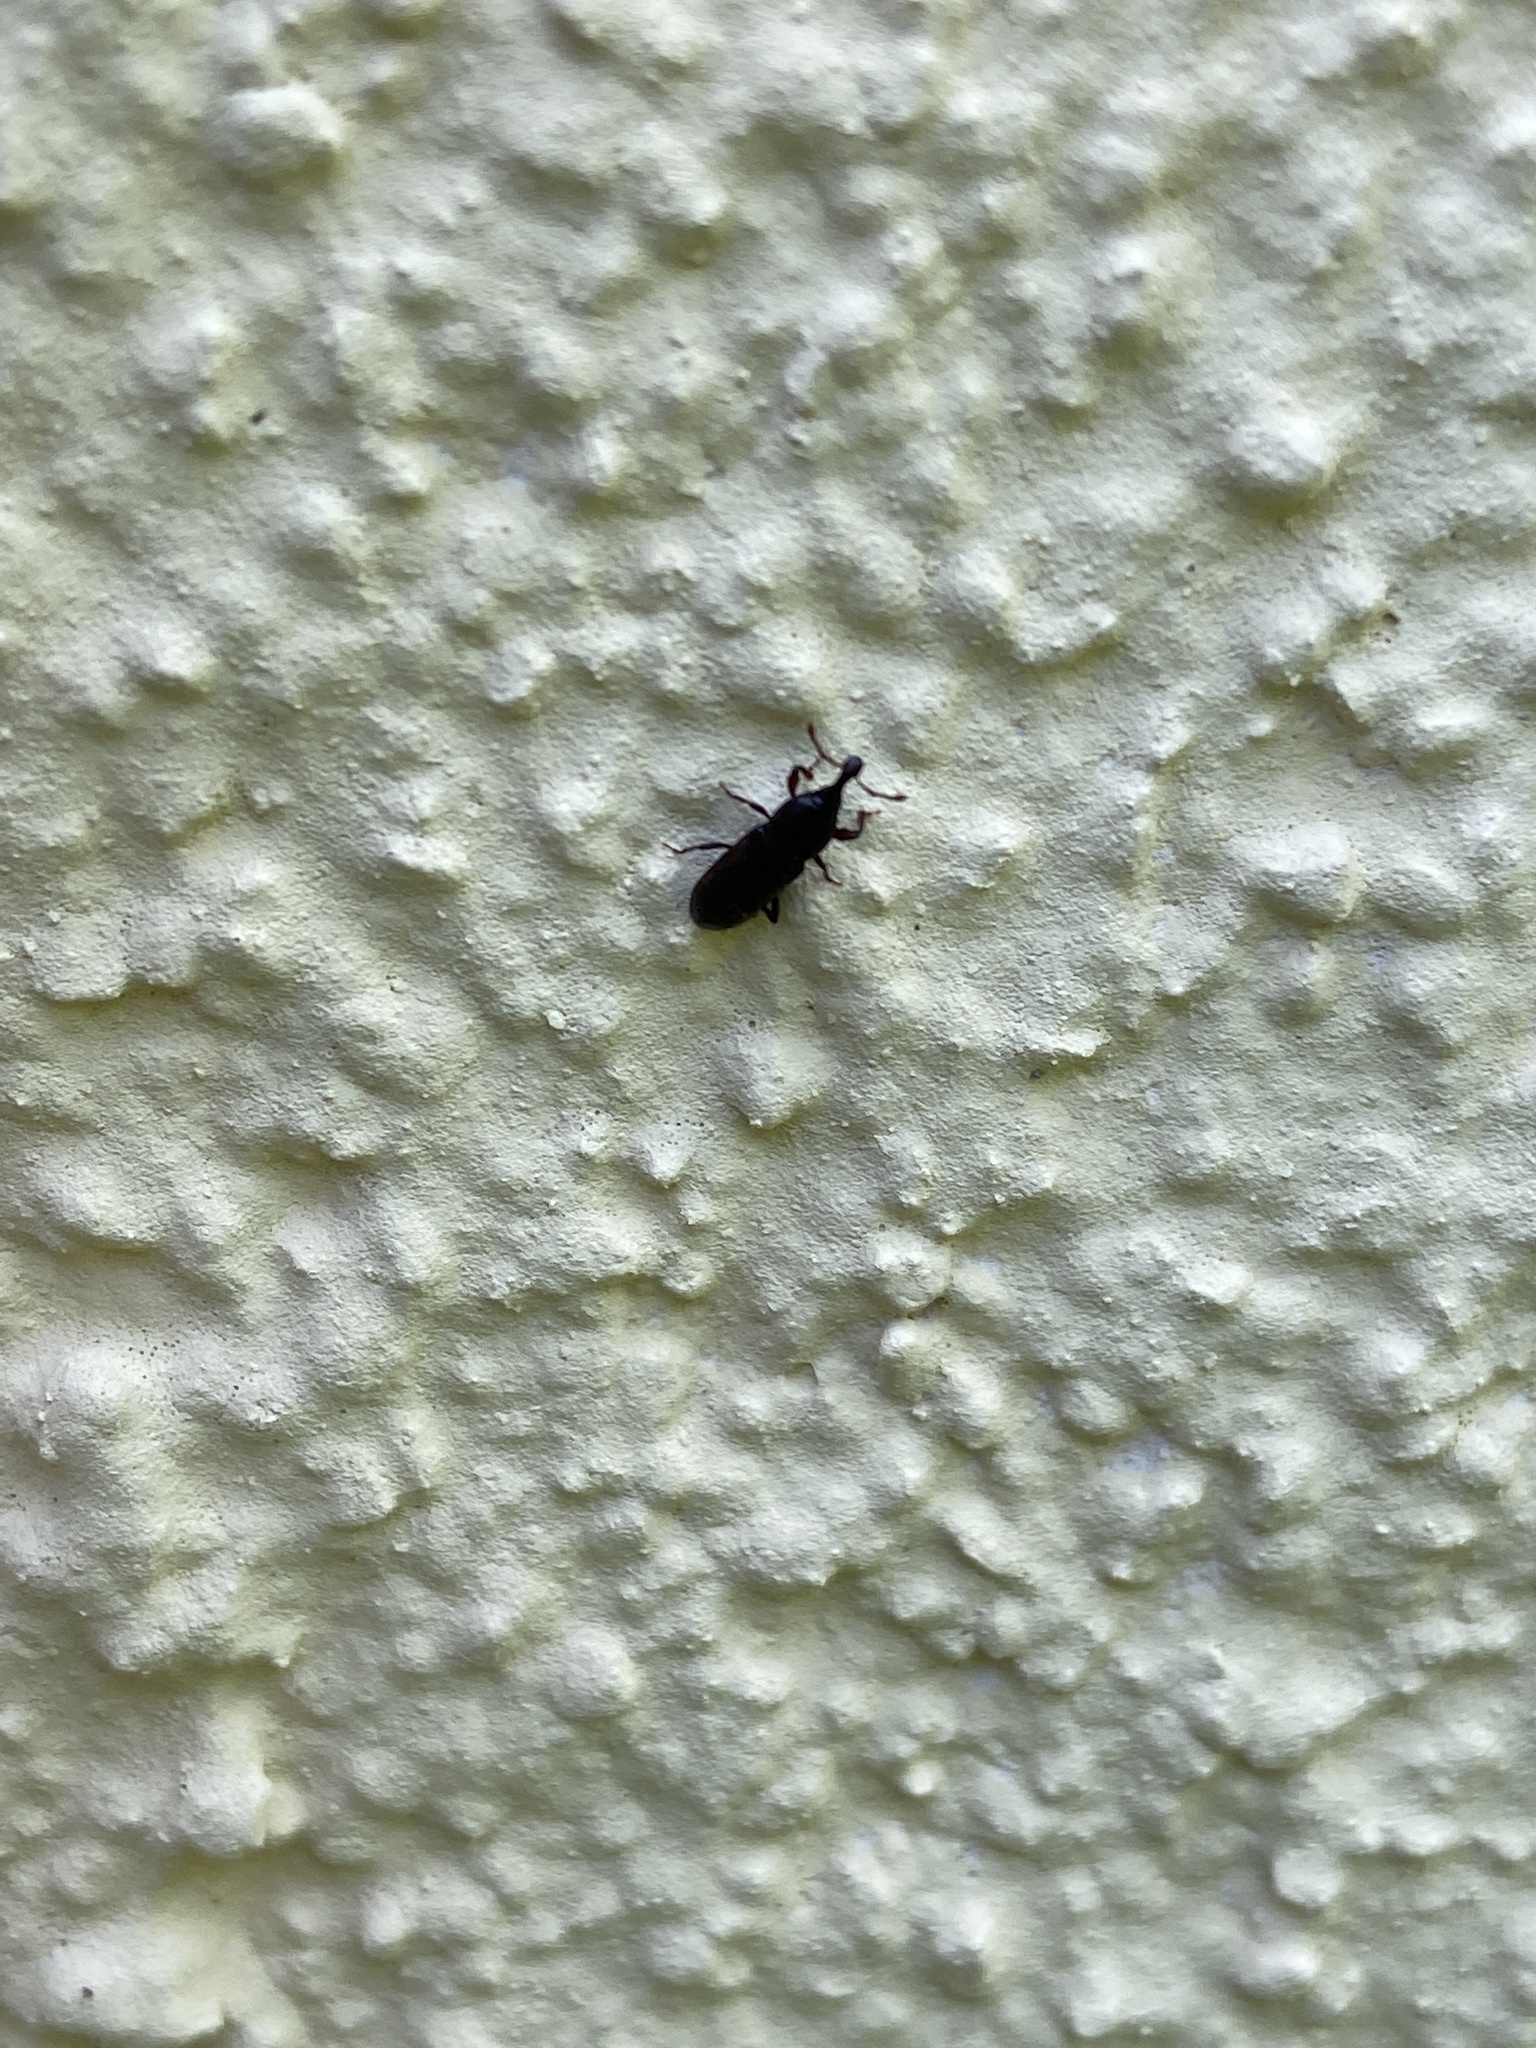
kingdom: Animalia
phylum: Arthropoda
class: Insecta
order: Coleoptera
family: Curculionidae
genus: Cossonus
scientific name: Cossonus linearis
